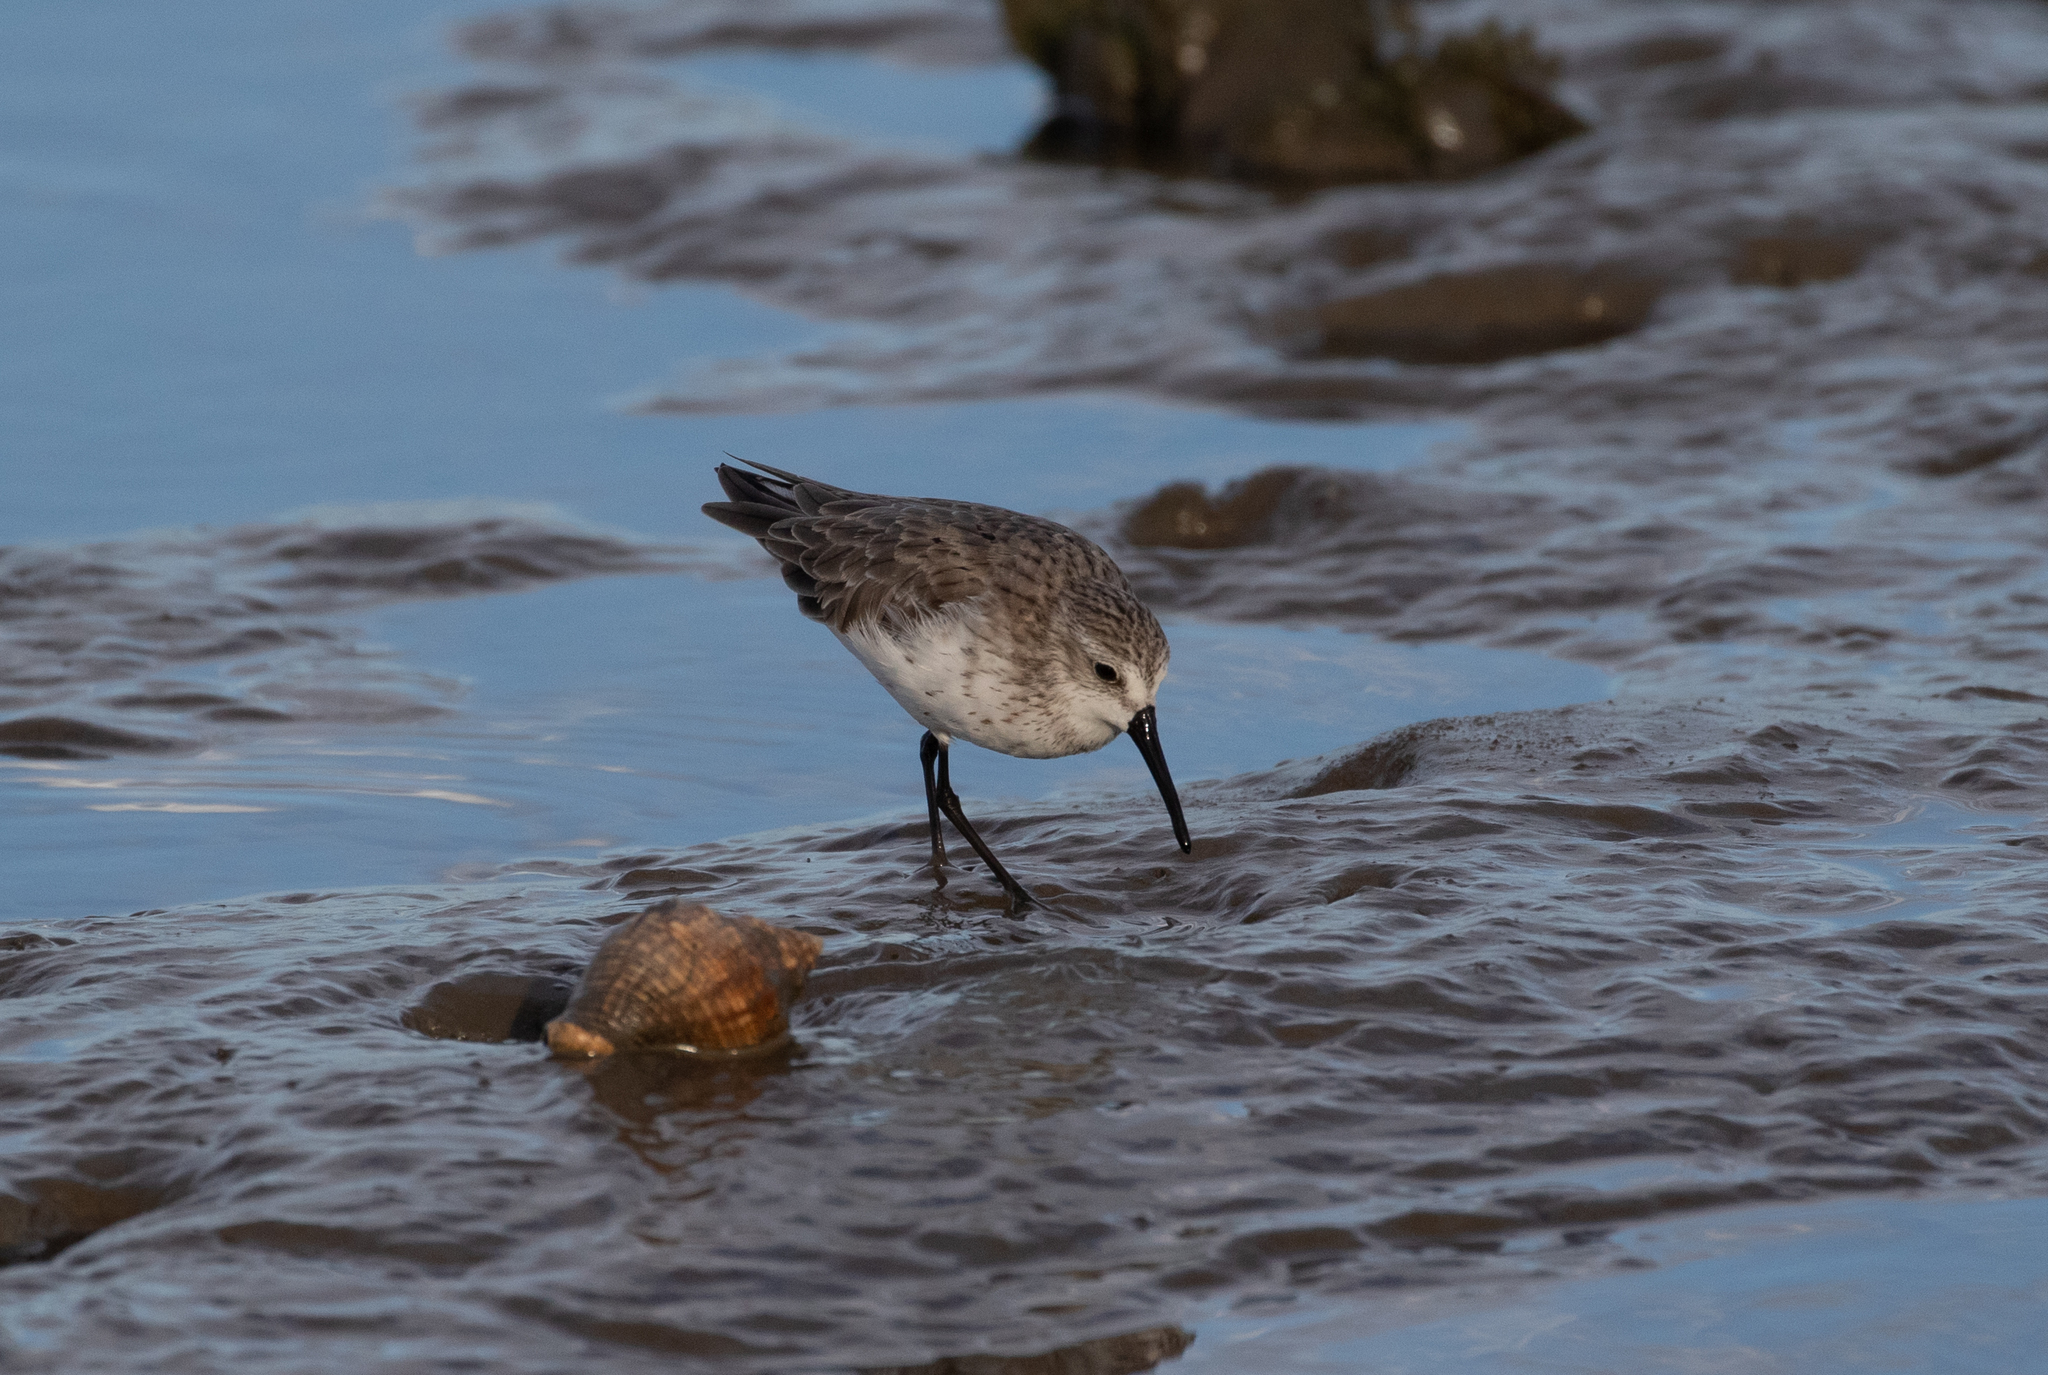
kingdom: Animalia
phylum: Chordata
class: Aves
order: Charadriiformes
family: Scolopacidae
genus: Calidris
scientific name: Calidris mauri
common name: Western sandpiper
